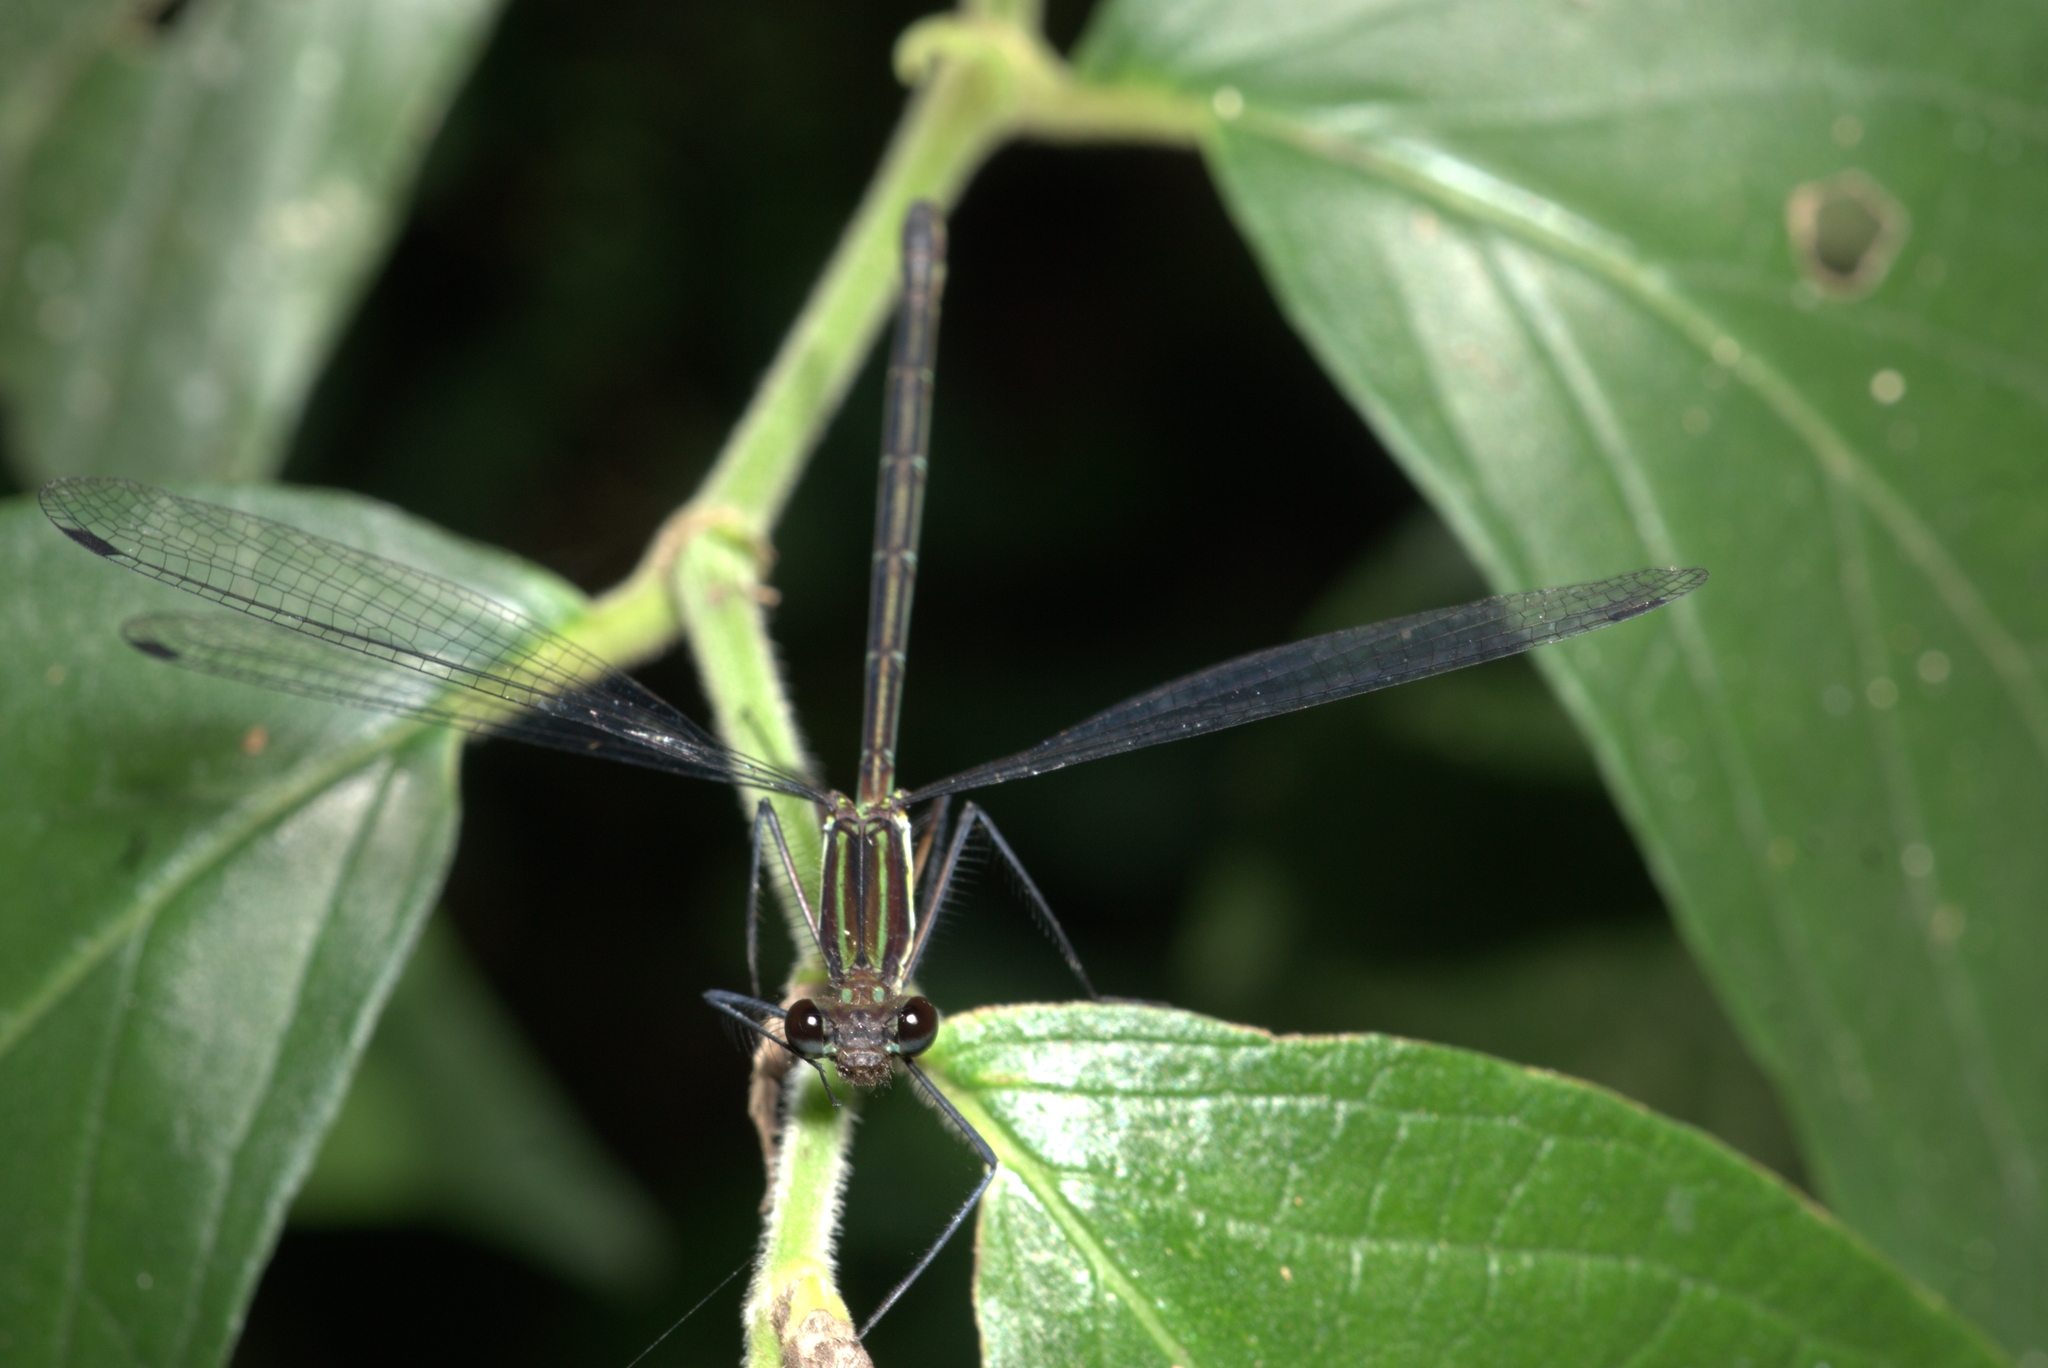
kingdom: Animalia
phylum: Arthropoda
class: Insecta
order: Odonata
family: Megapodagrionidae
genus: Allopodagrion
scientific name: Allopodagrion contortum
